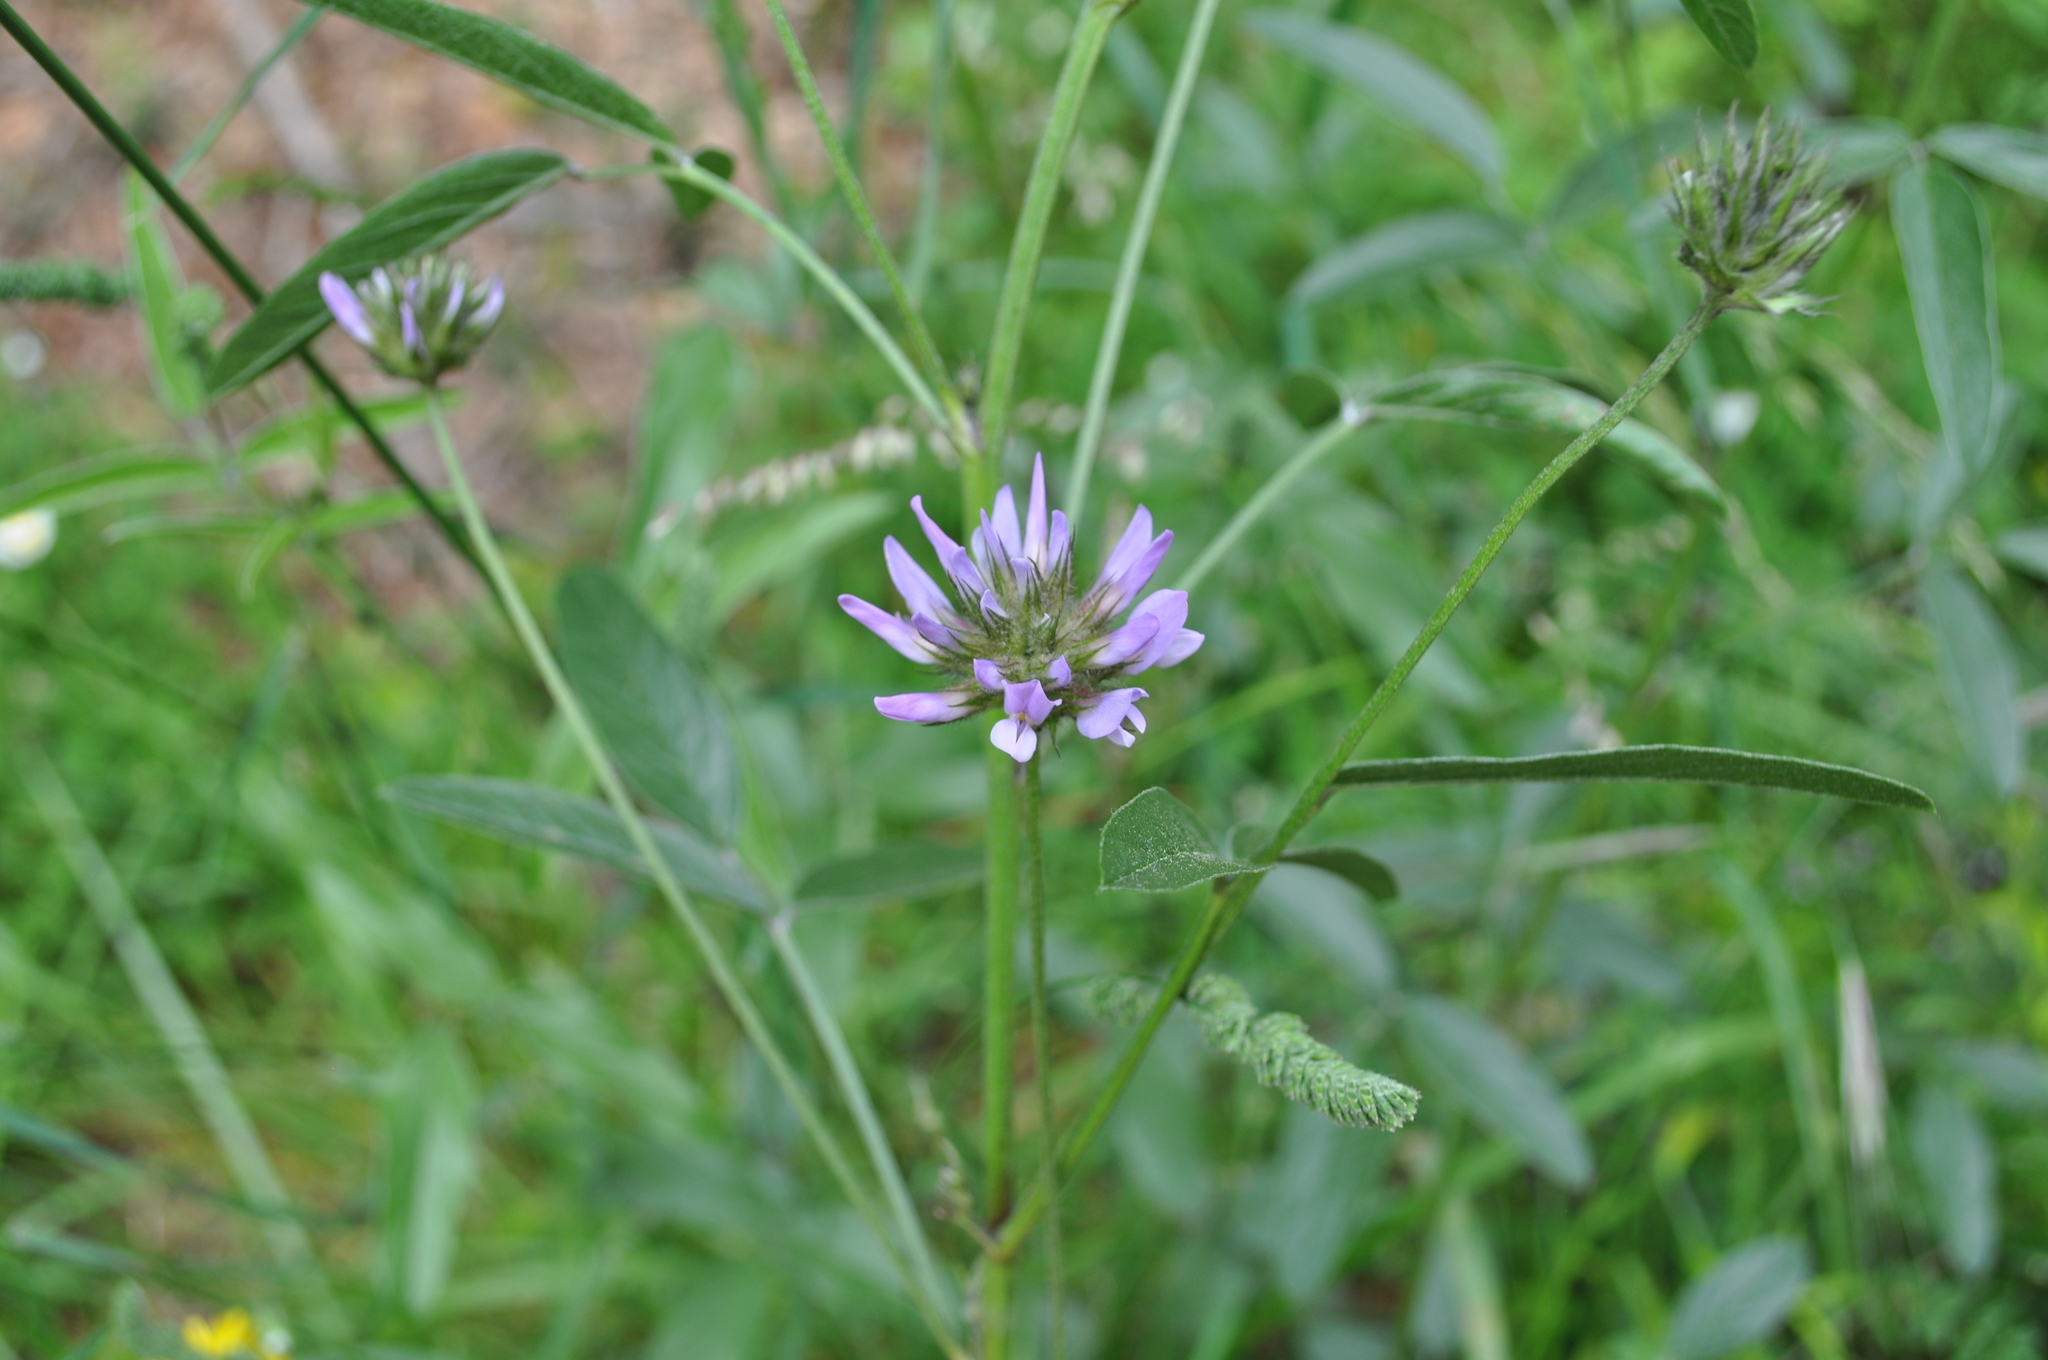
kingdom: Plantae
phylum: Tracheophyta
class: Magnoliopsida
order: Fabales
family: Fabaceae
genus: Bituminaria
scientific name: Bituminaria bituminosa
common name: Arabian pea
